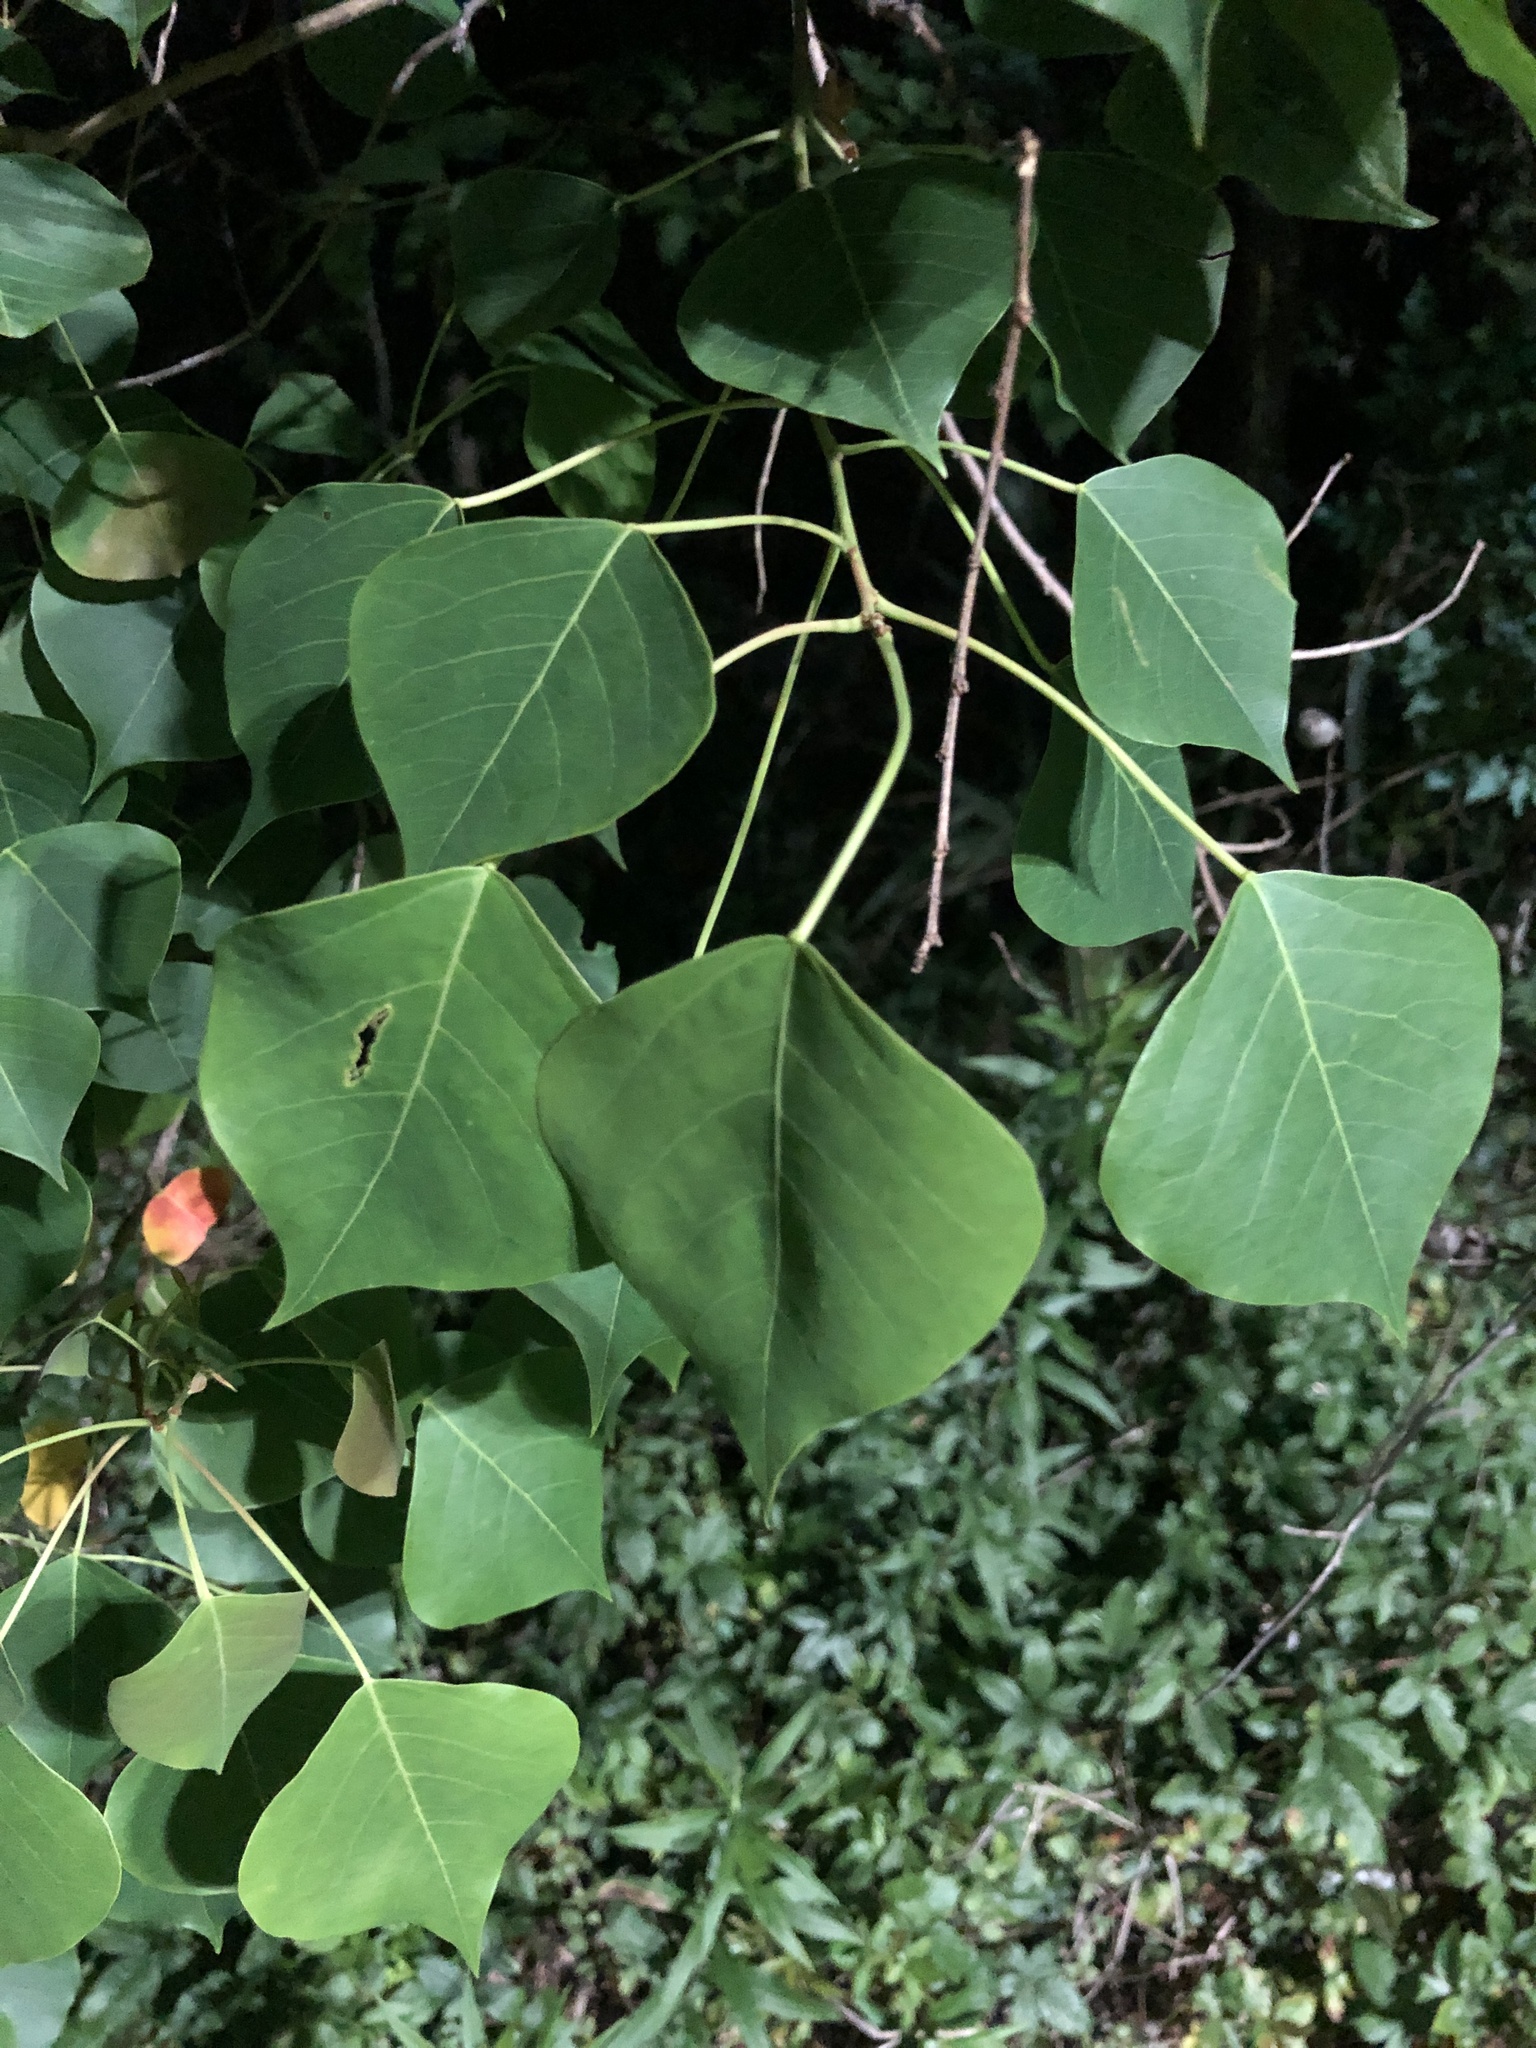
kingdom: Plantae
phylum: Tracheophyta
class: Magnoliopsida
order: Malpighiales
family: Euphorbiaceae
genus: Triadica
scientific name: Triadica sebifera
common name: Chinese tallow
